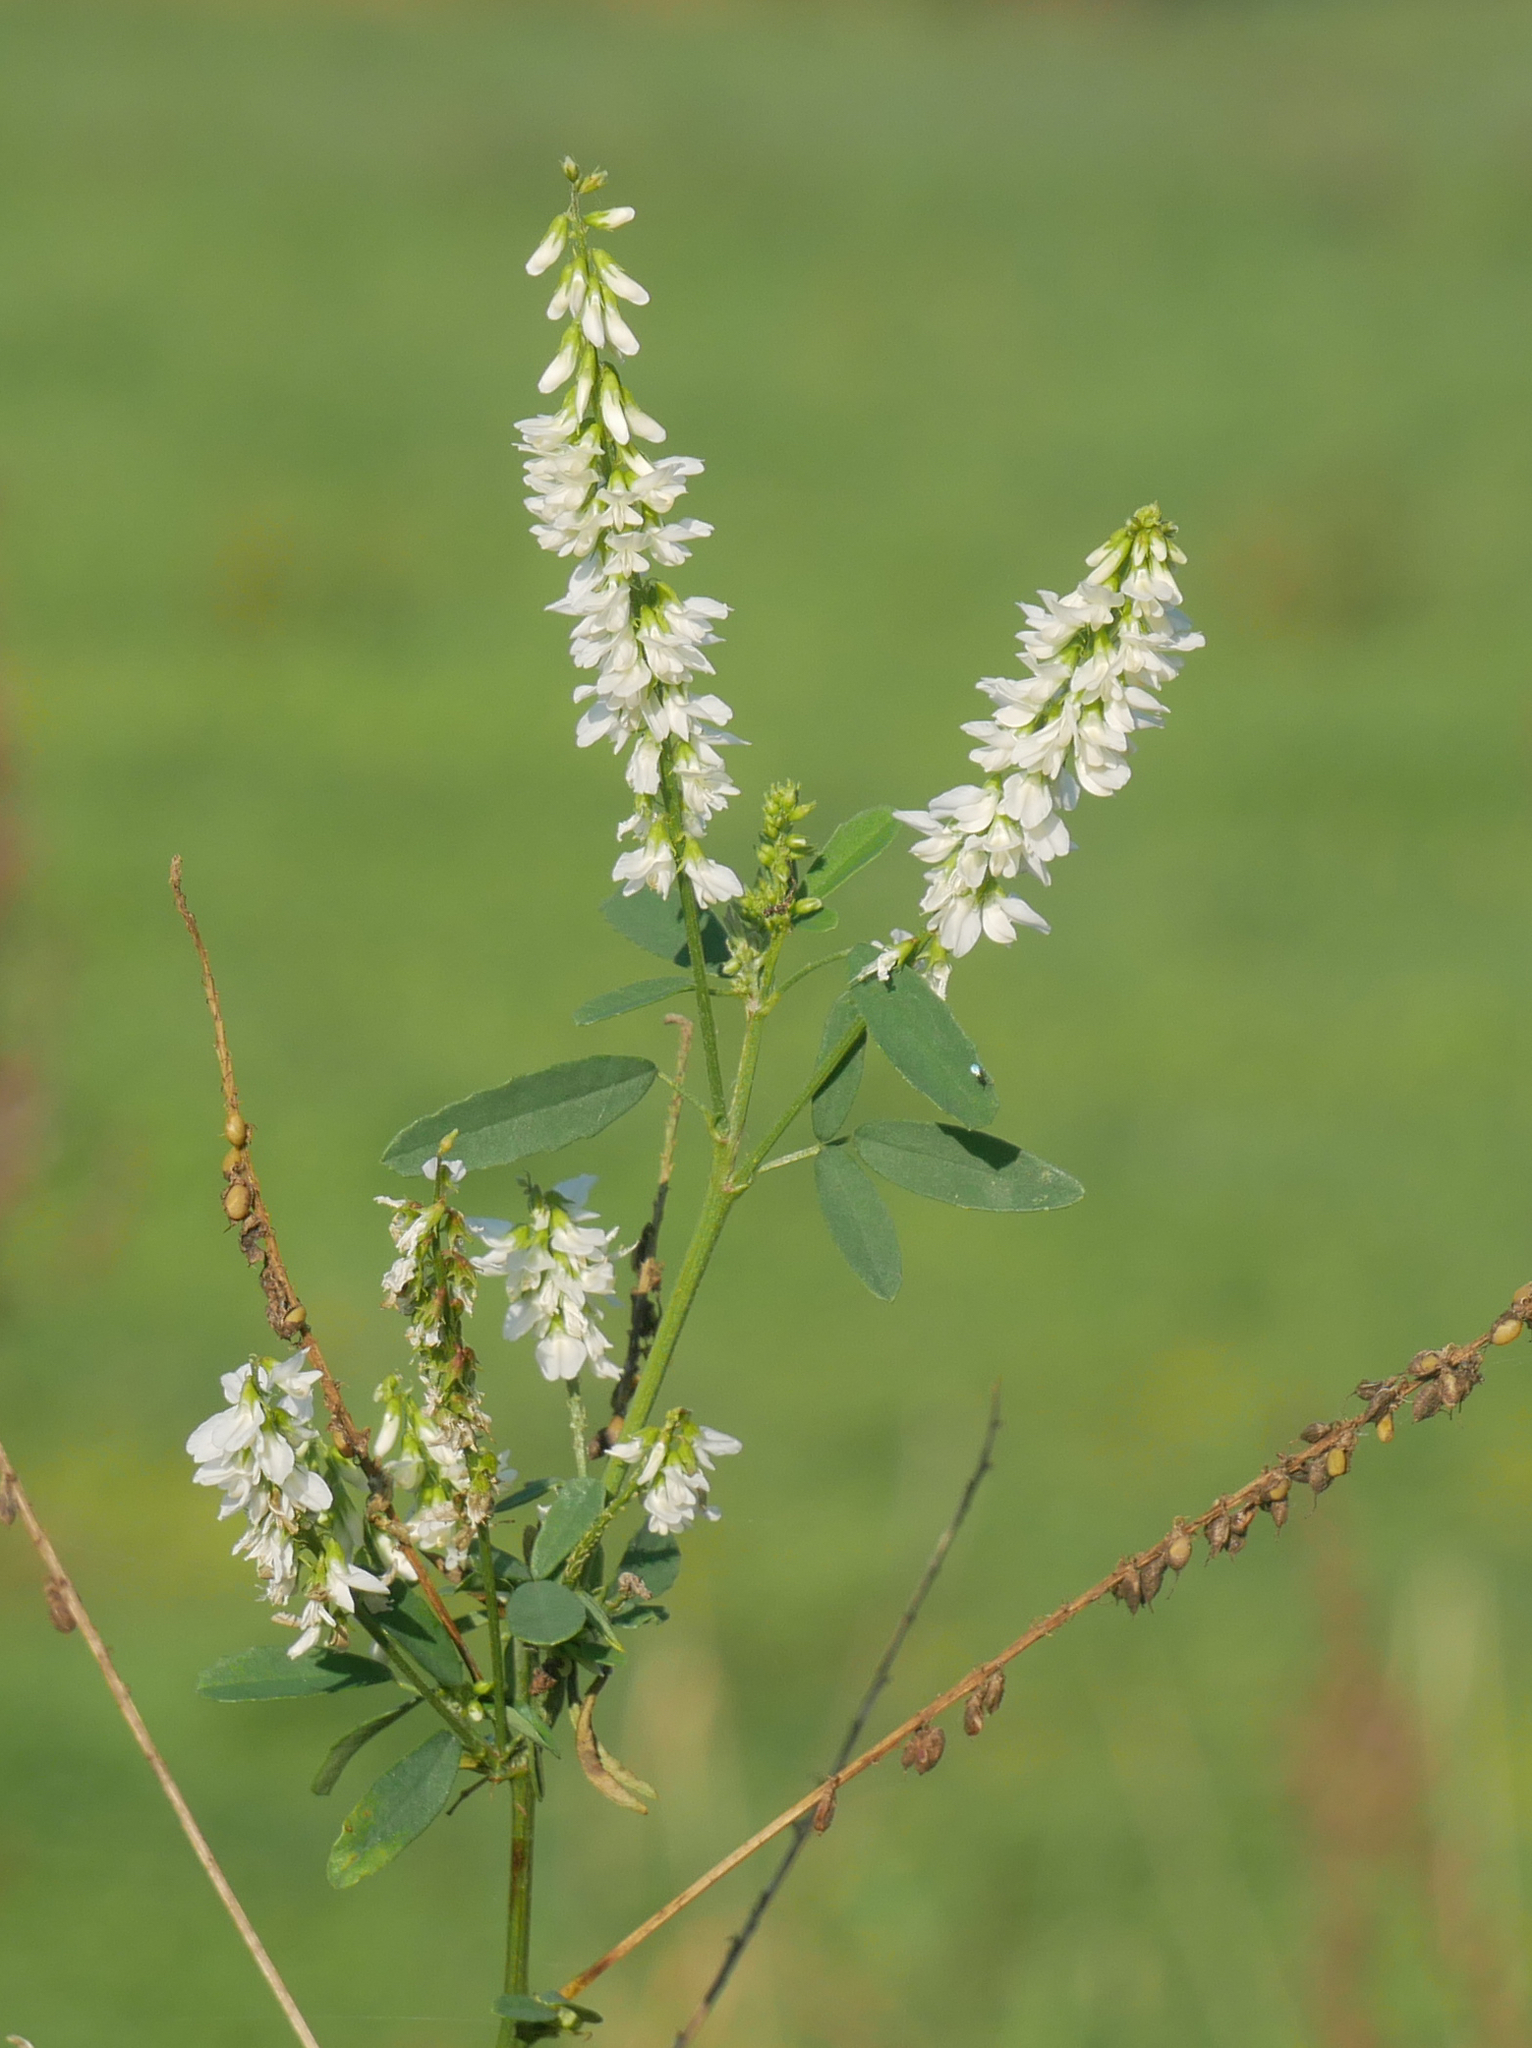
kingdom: Plantae
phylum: Tracheophyta
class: Magnoliopsida
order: Fabales
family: Fabaceae
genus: Melilotus
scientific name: Melilotus albus
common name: White melilot
